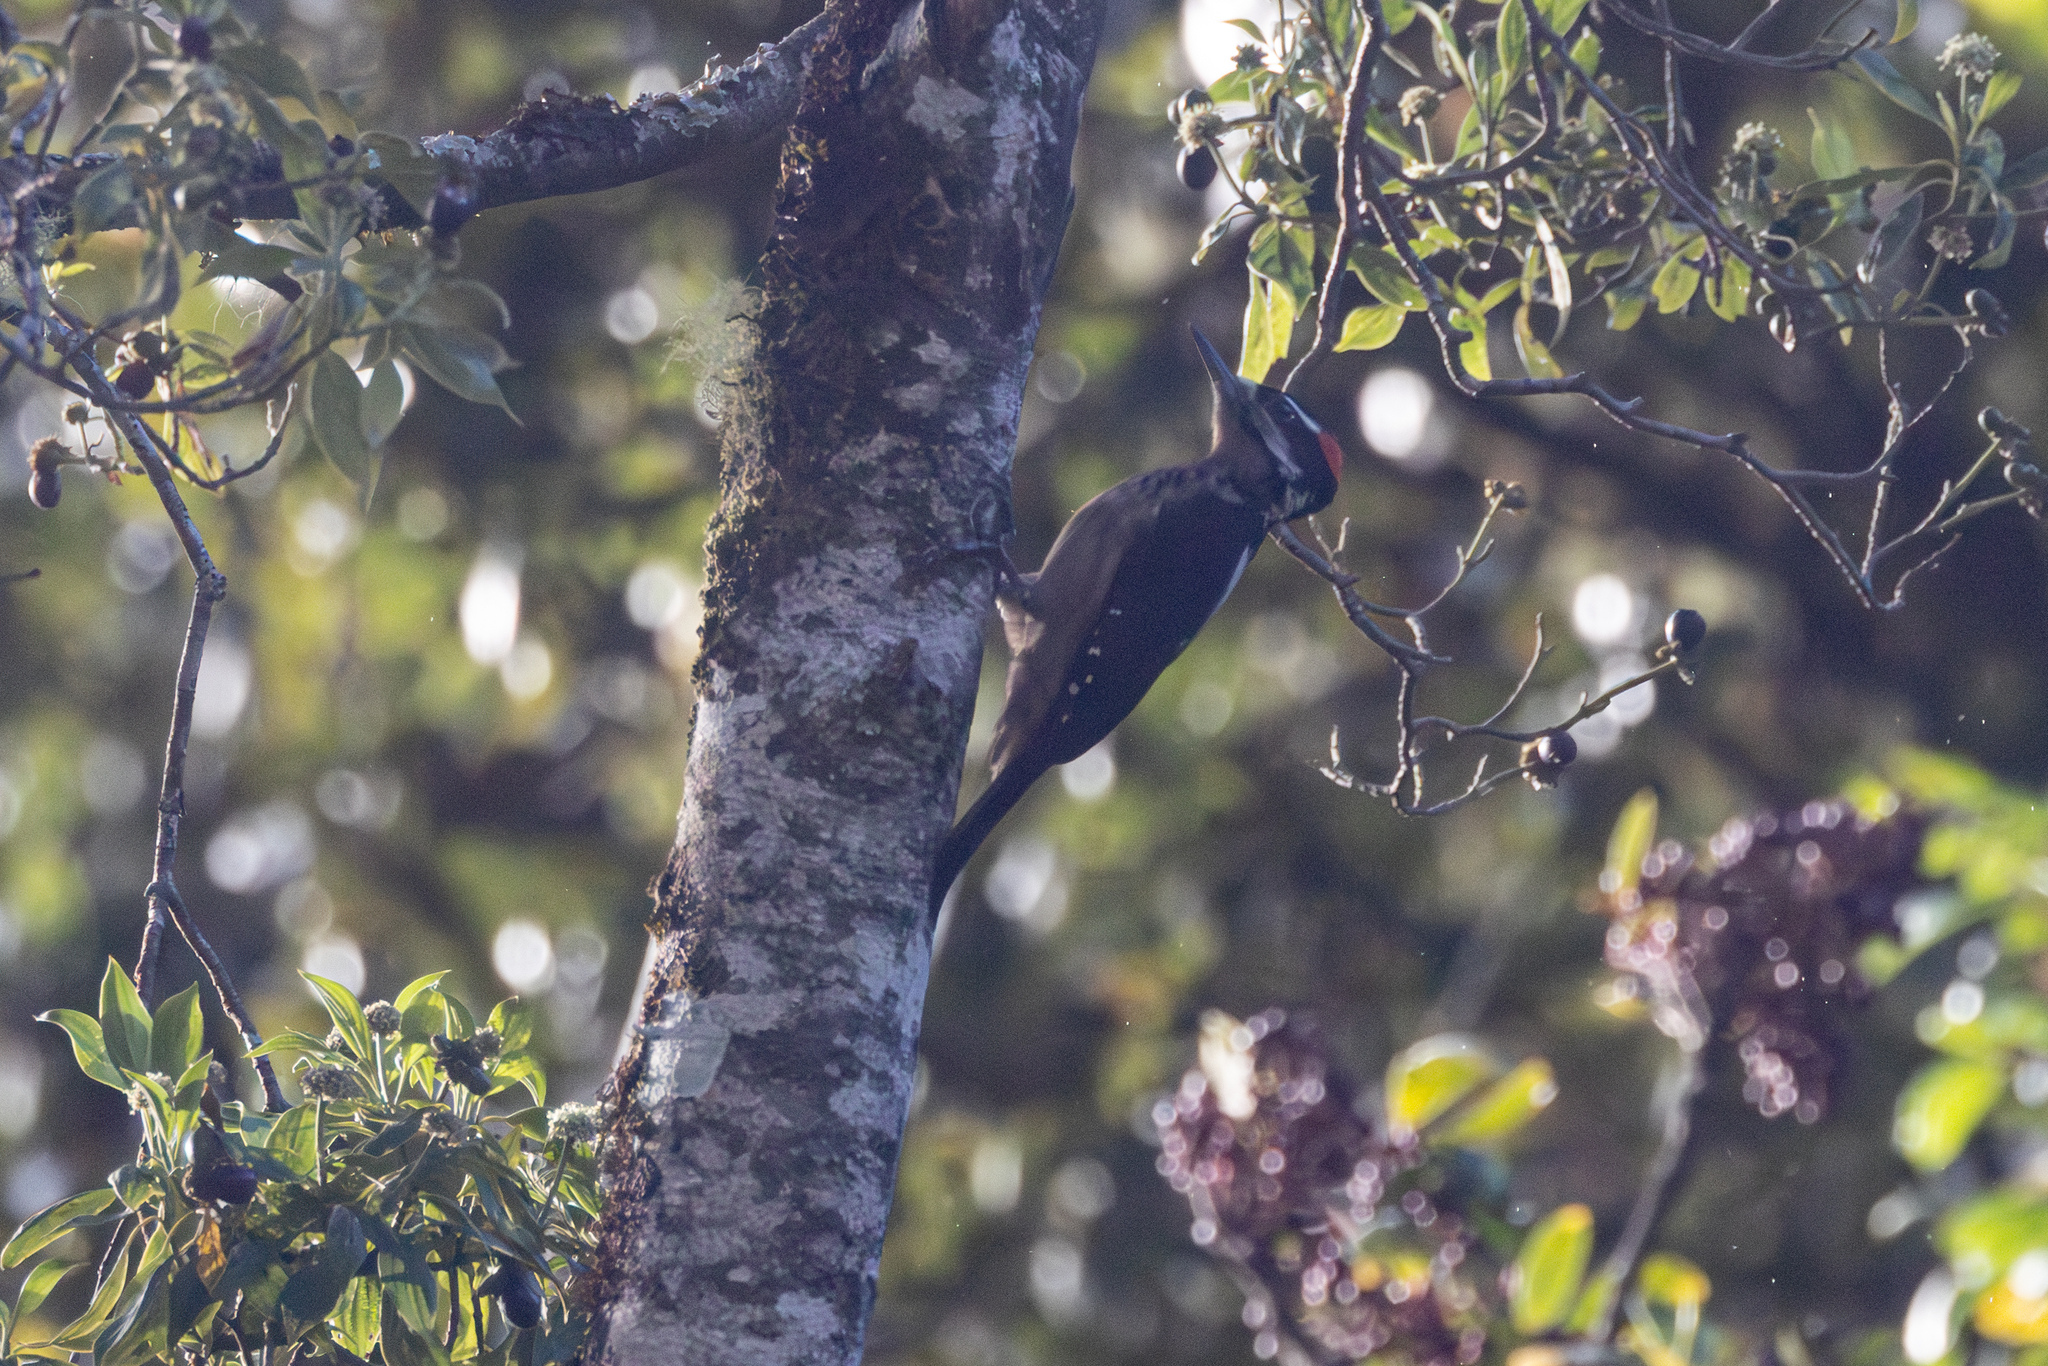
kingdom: Animalia
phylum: Chordata
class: Aves
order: Piciformes
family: Picidae
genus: Leuconotopicus
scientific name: Leuconotopicus villosus
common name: Hairy woodpecker
